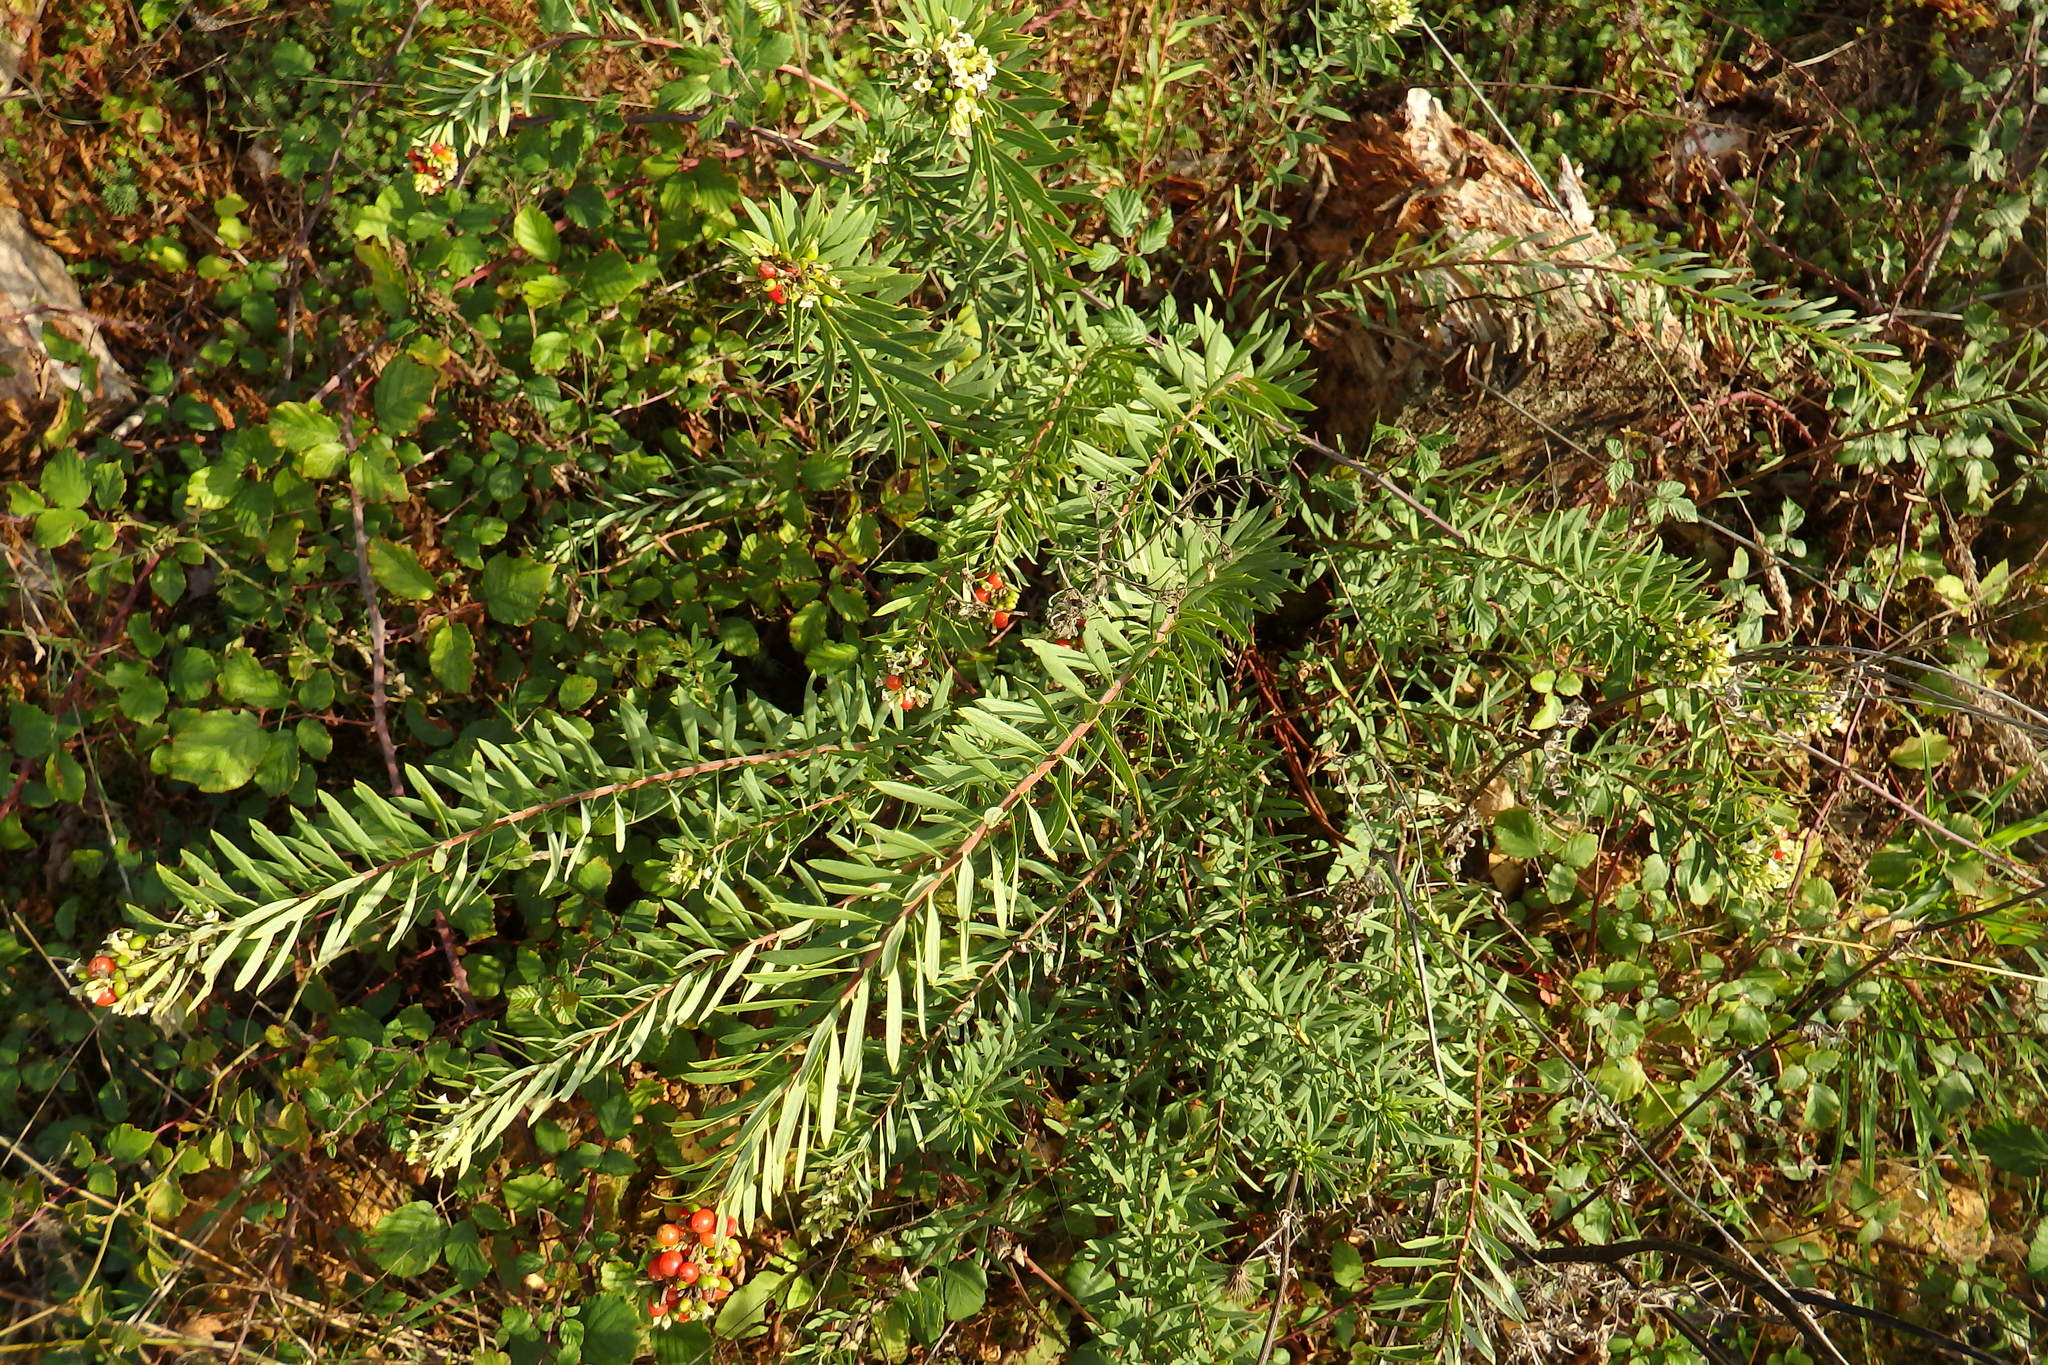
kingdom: Plantae
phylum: Tracheophyta
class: Magnoliopsida
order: Malvales
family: Thymelaeaceae
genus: Daphne
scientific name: Daphne gnidium
